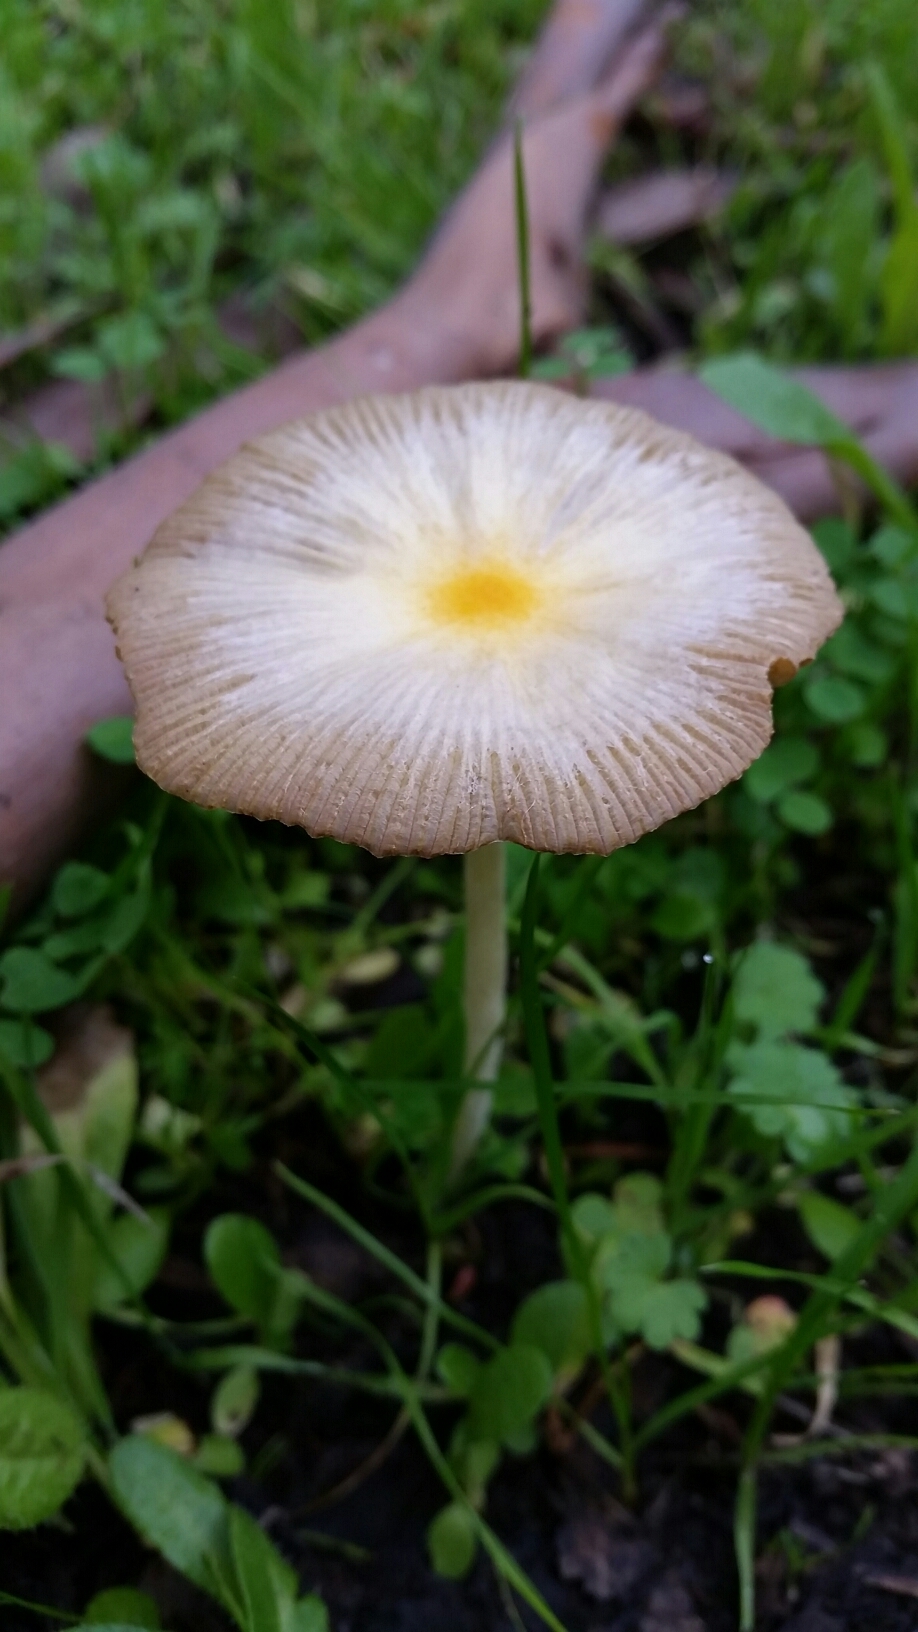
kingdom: Fungi
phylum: Basidiomycota
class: Agaricomycetes
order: Agaricales
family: Bolbitiaceae
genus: Bolbitius
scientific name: Bolbitius titubans
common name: Yellow fieldcap
